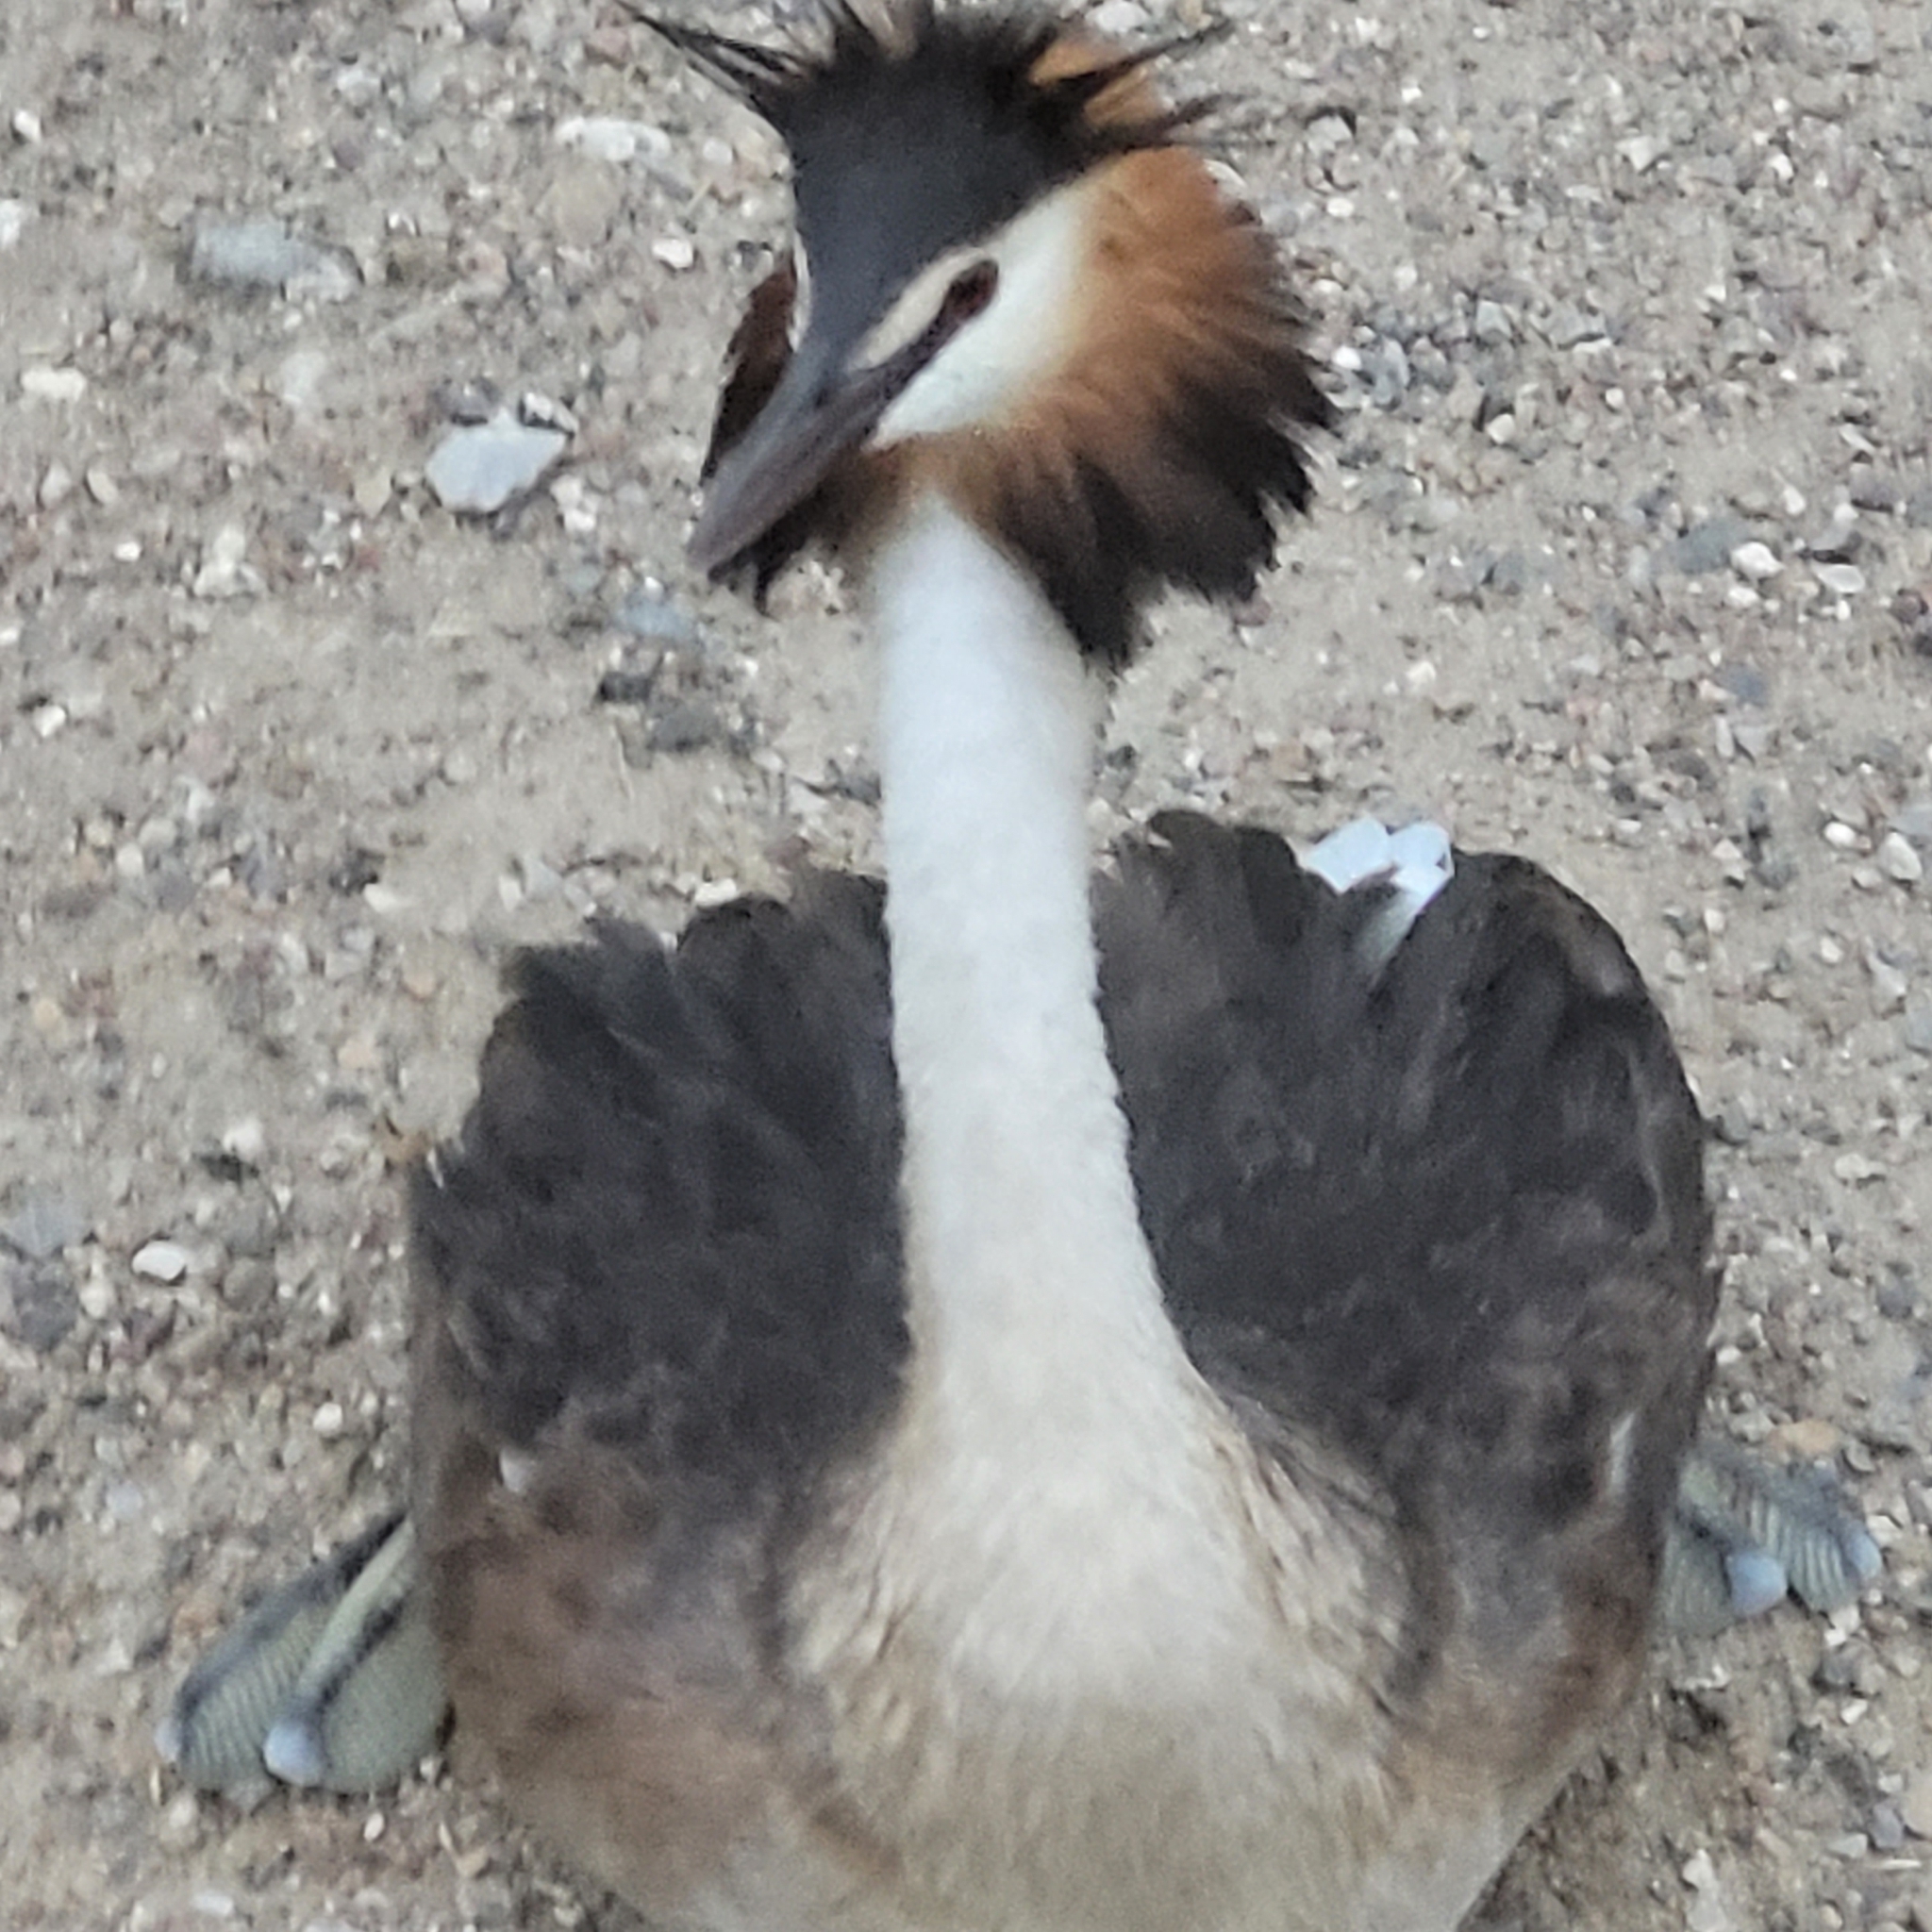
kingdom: Animalia
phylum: Chordata
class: Aves
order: Podicipediformes
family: Podicipedidae
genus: Podiceps
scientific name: Podiceps cristatus
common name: Great crested grebe
